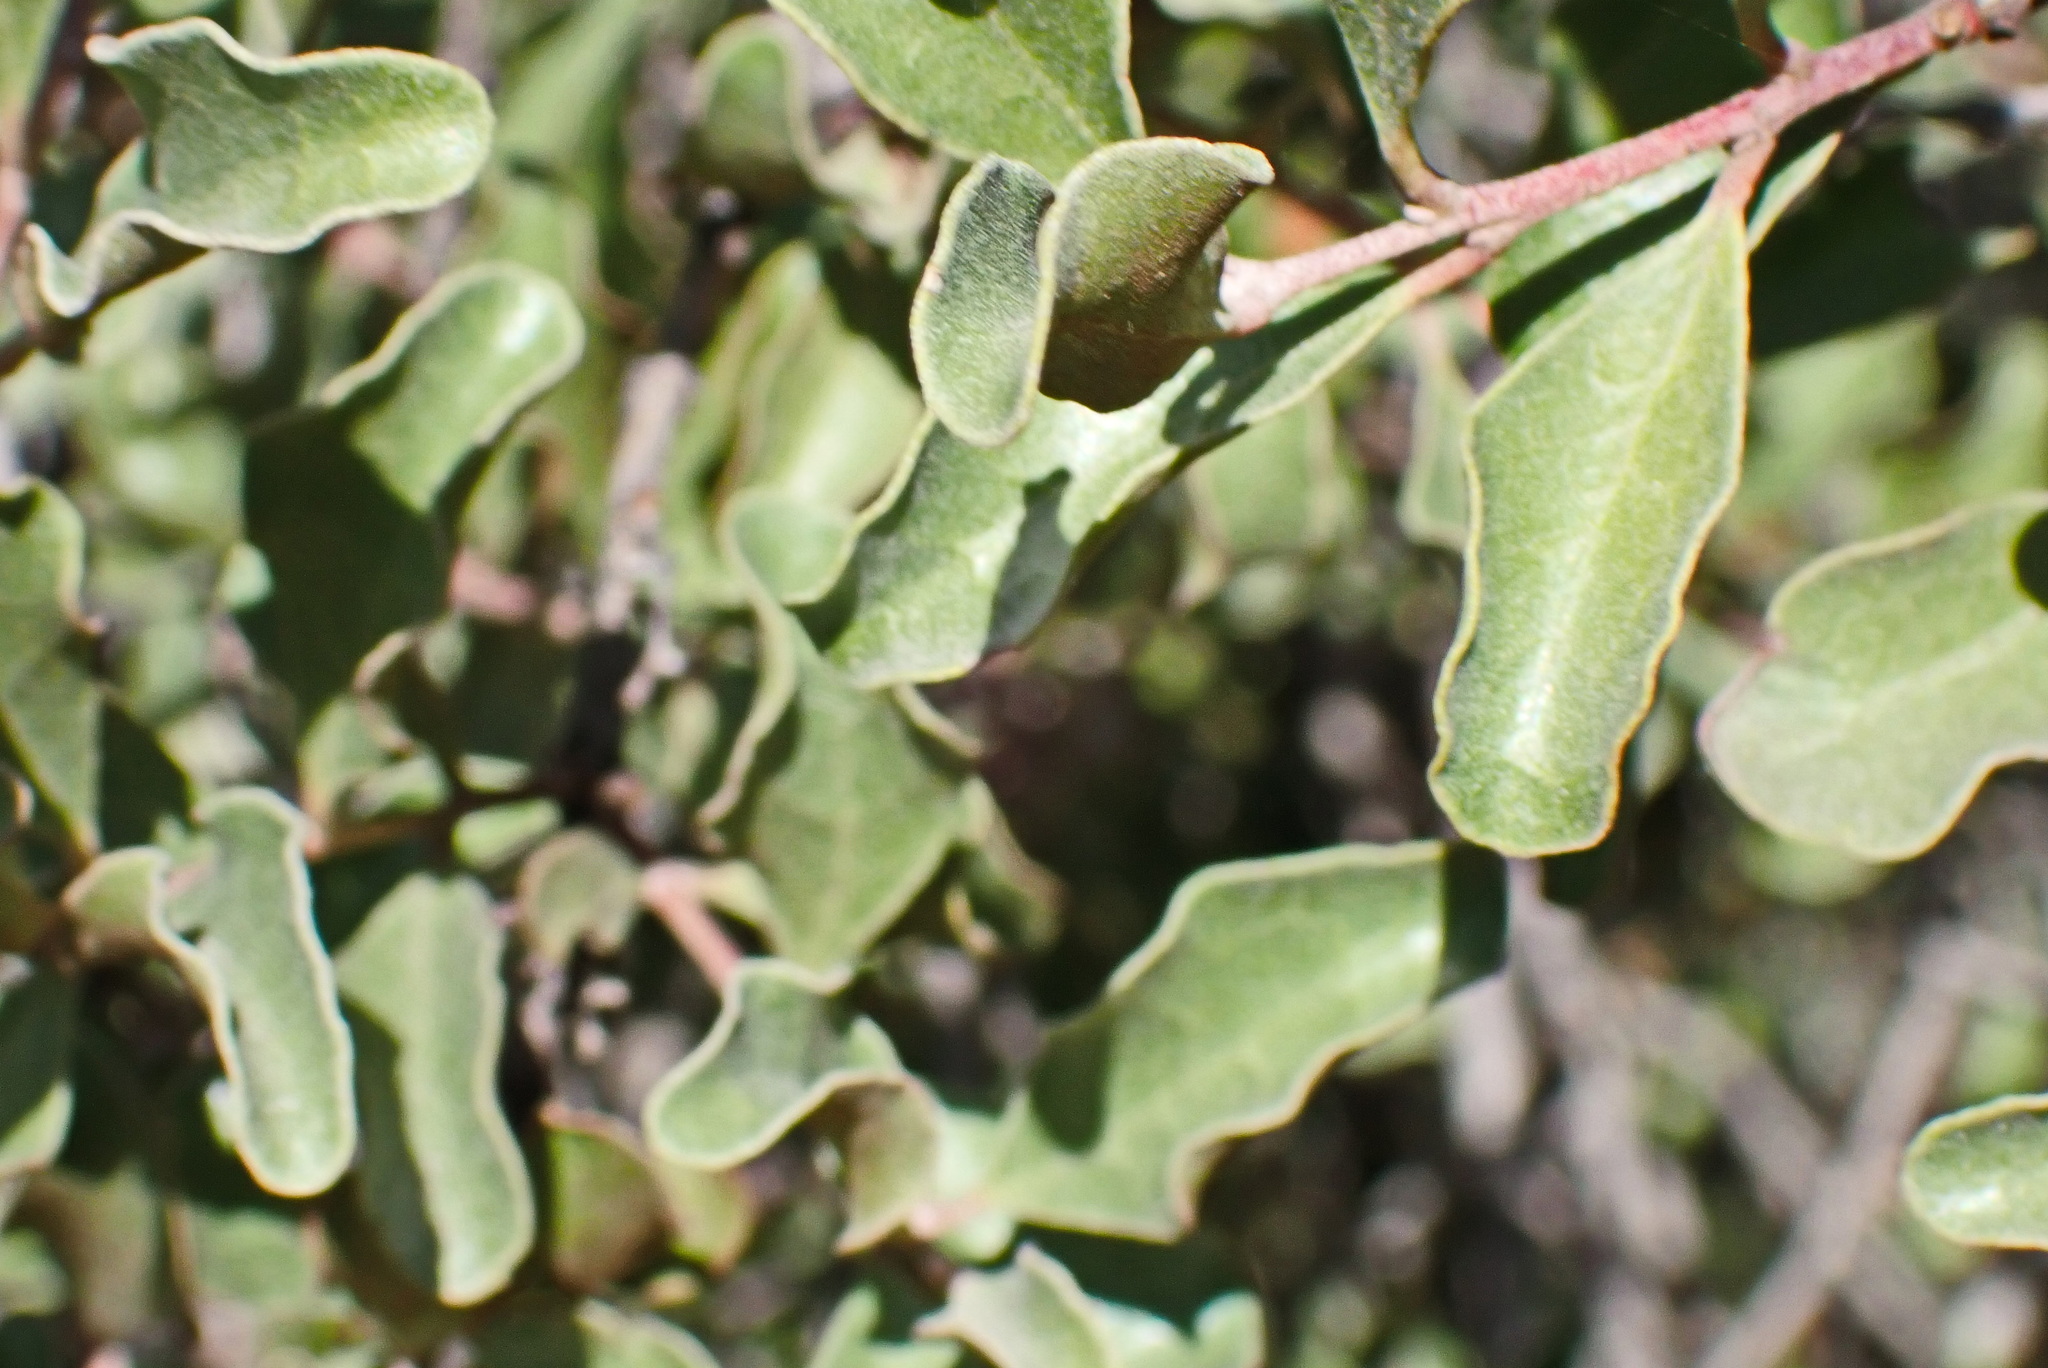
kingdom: Plantae
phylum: Tracheophyta
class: Magnoliopsida
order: Ericales
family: Ebenaceae
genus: Euclea
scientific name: Euclea undulata
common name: Small-leaved guarri
